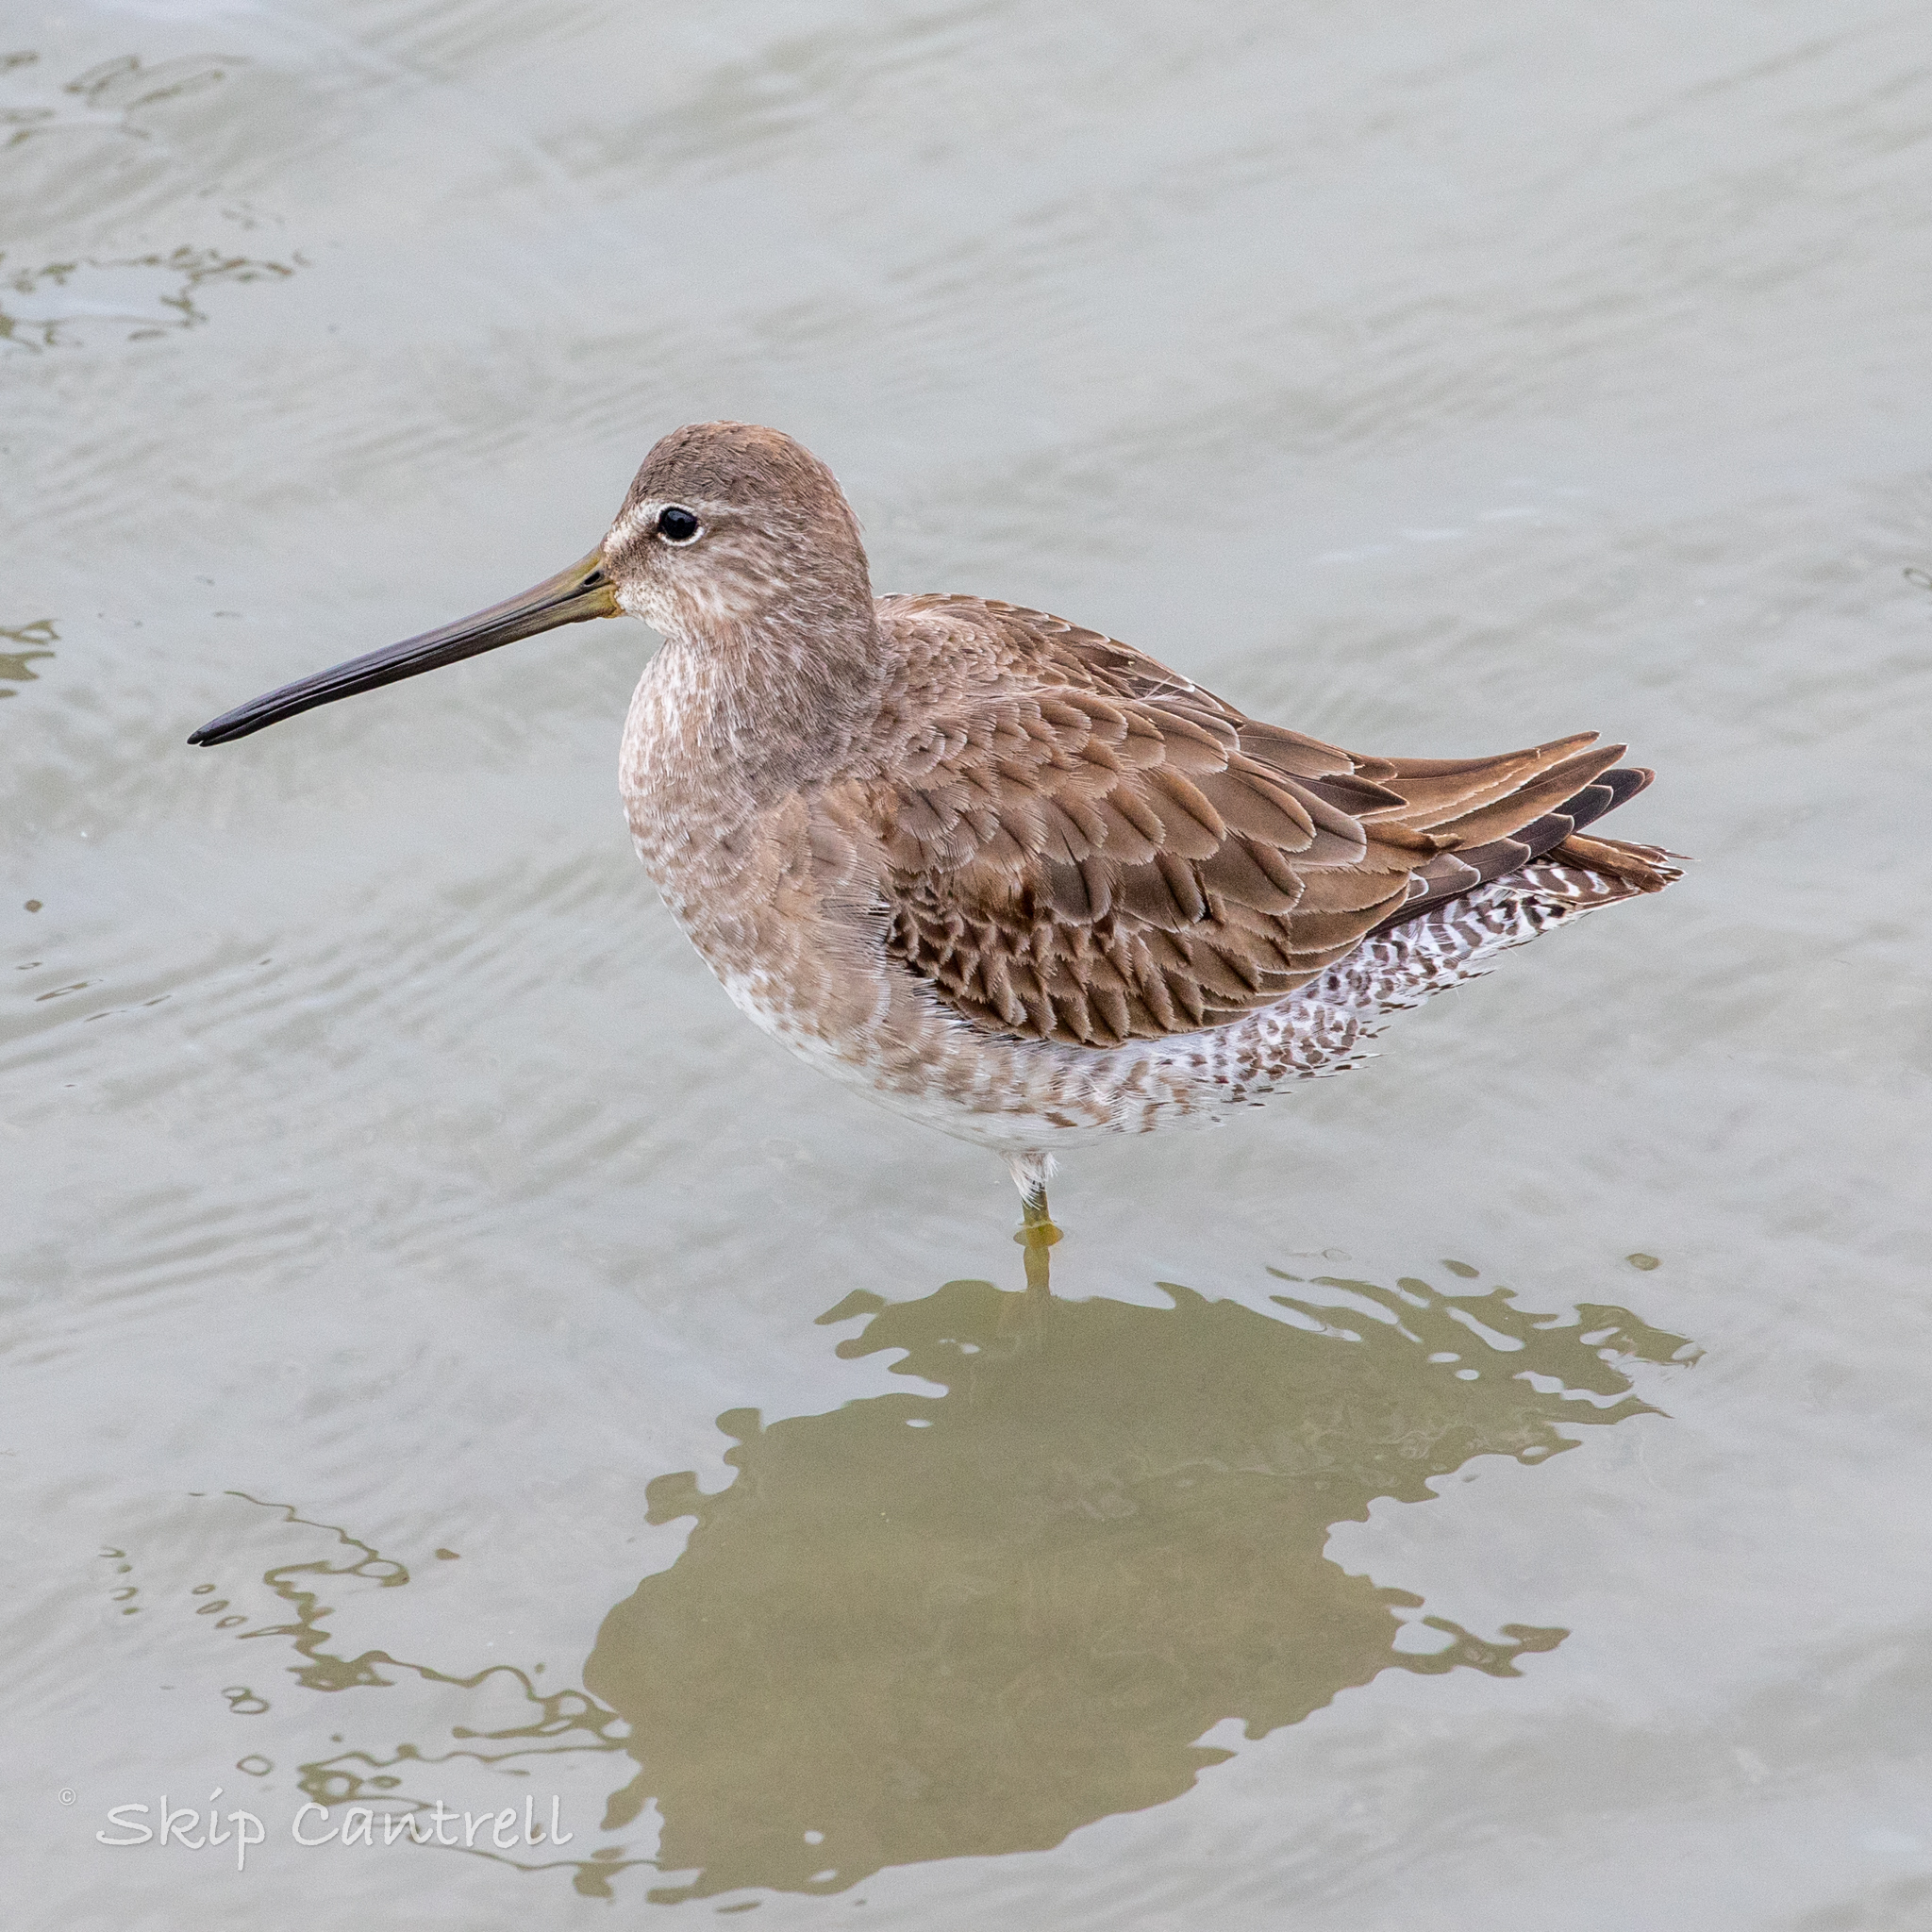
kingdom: Animalia
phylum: Chordata
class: Aves
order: Charadriiformes
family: Scolopacidae
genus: Limnodromus
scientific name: Limnodromus scolopaceus
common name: Long-billed dowitcher
